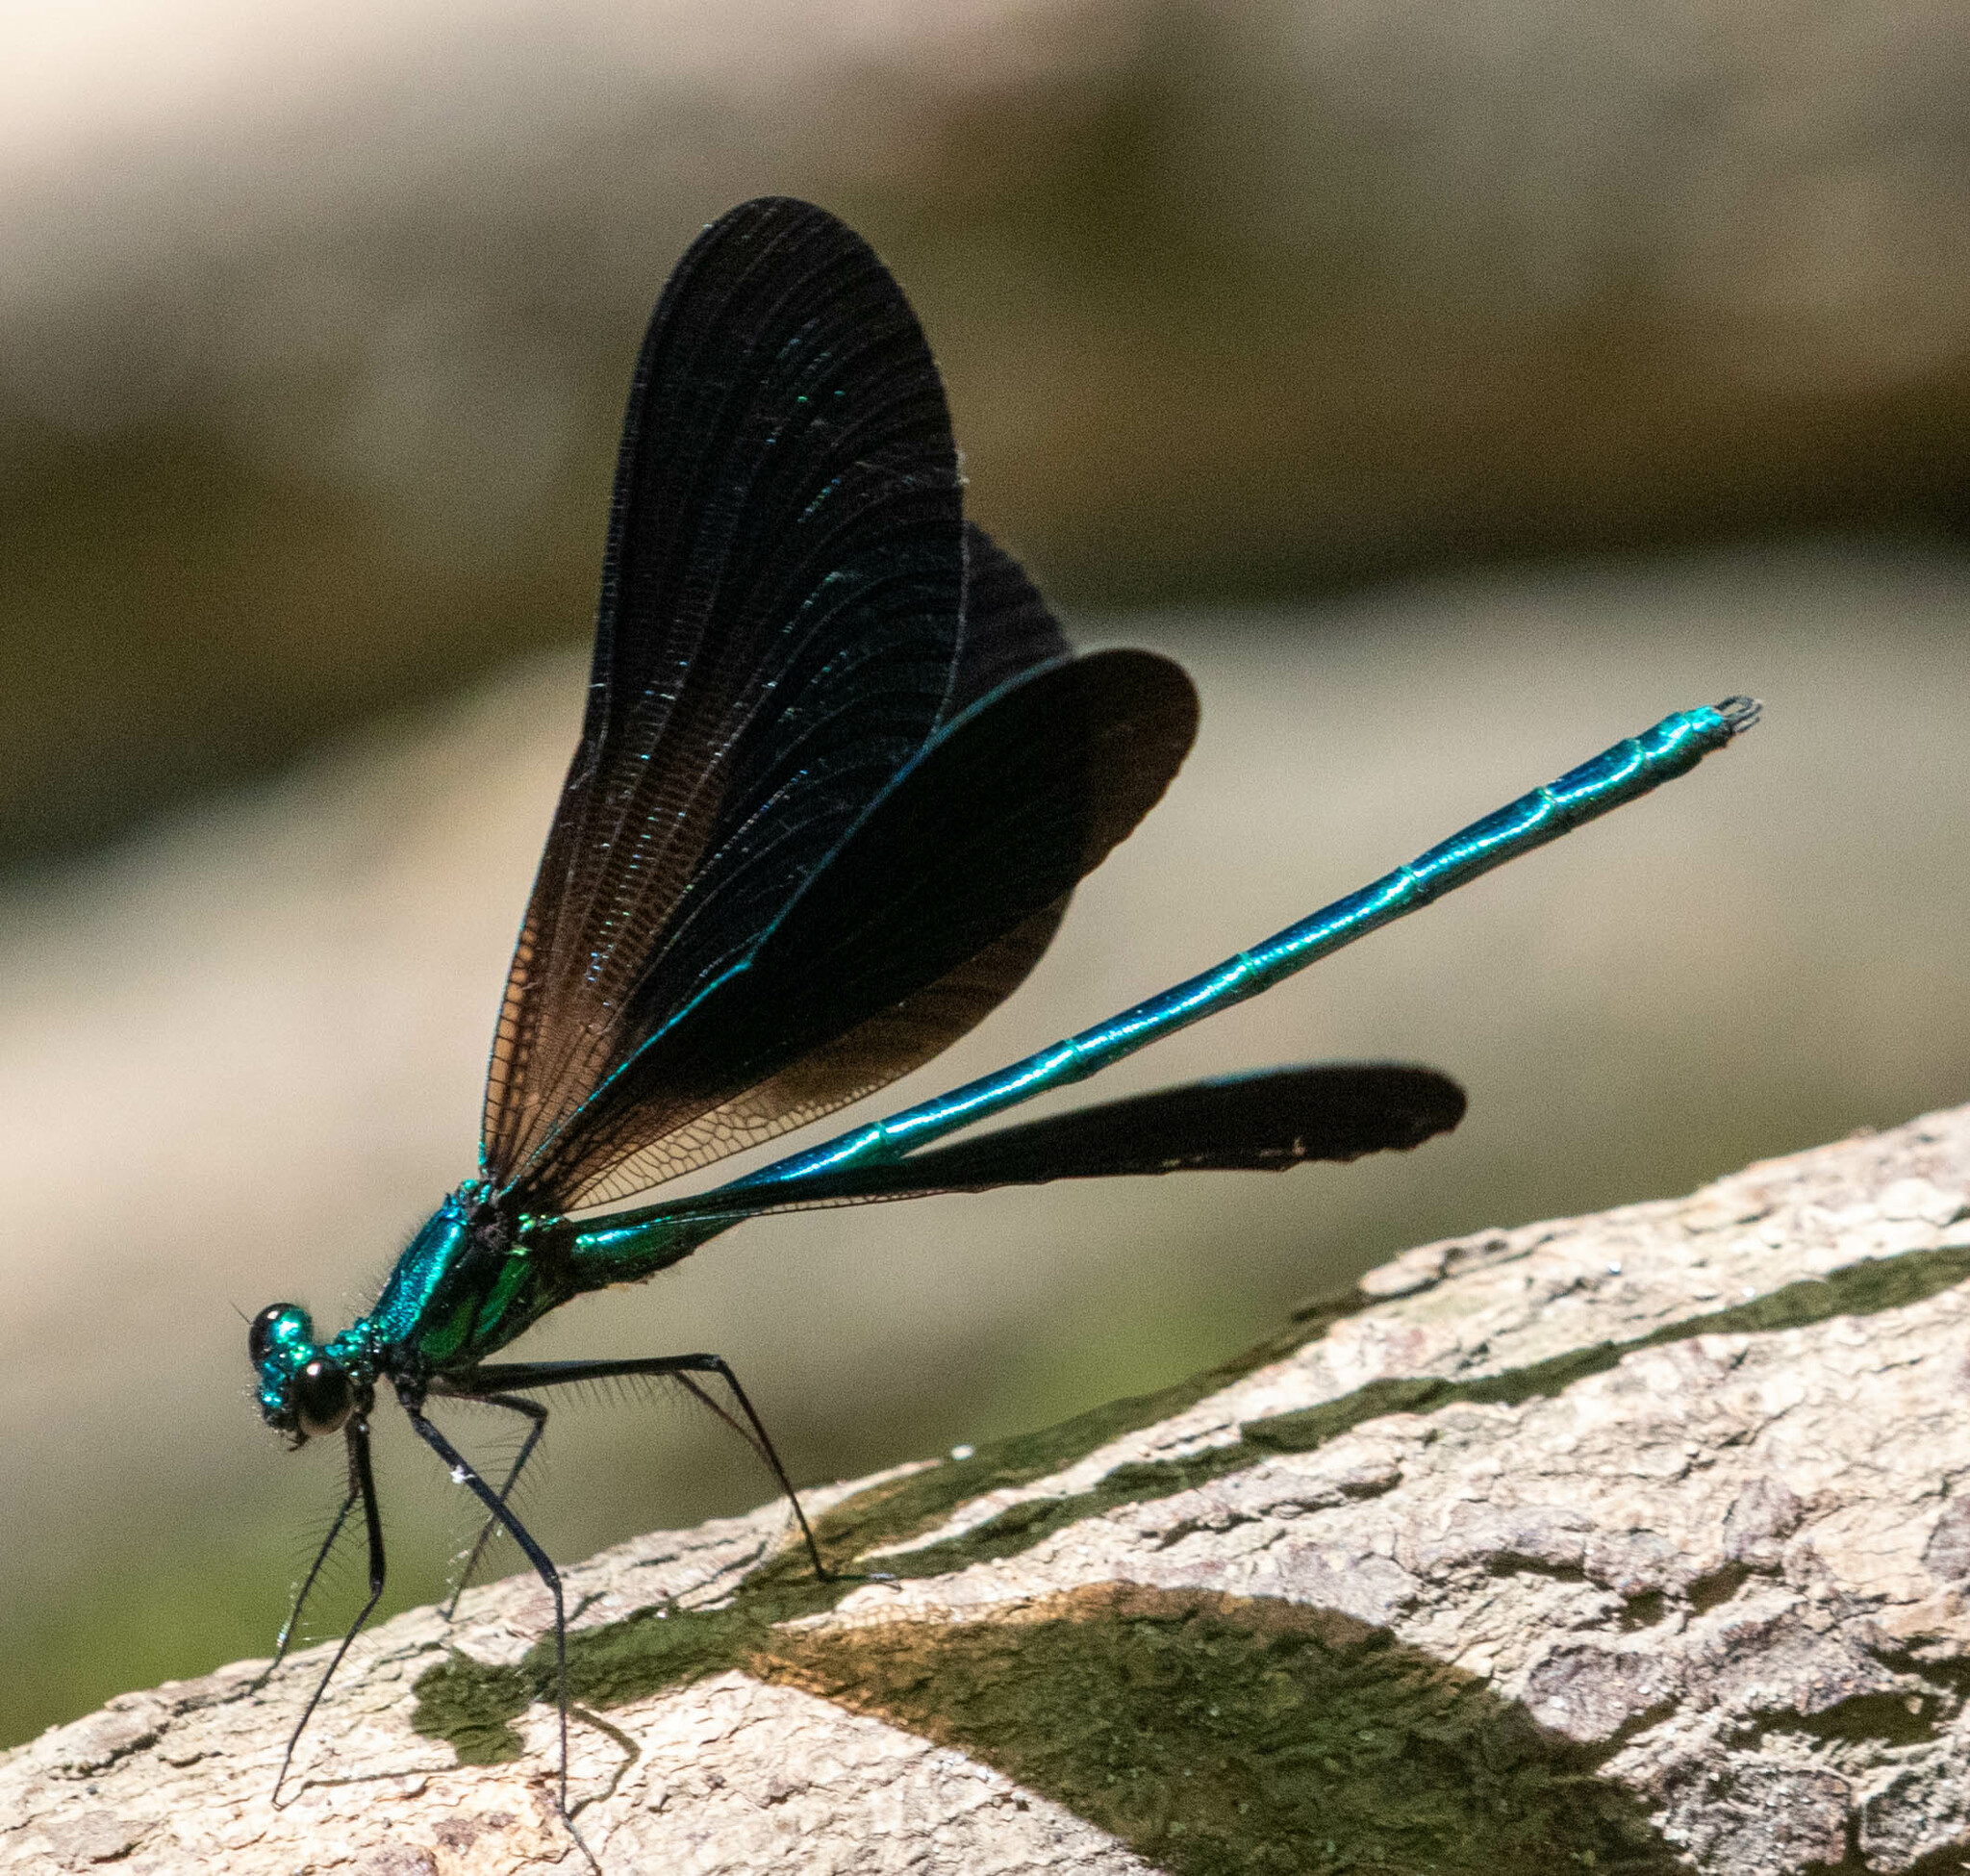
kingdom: Animalia
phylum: Arthropoda
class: Insecta
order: Odonata
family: Calopterygidae
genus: Calopteryx
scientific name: Calopteryx maculata
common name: Ebony jewelwing
